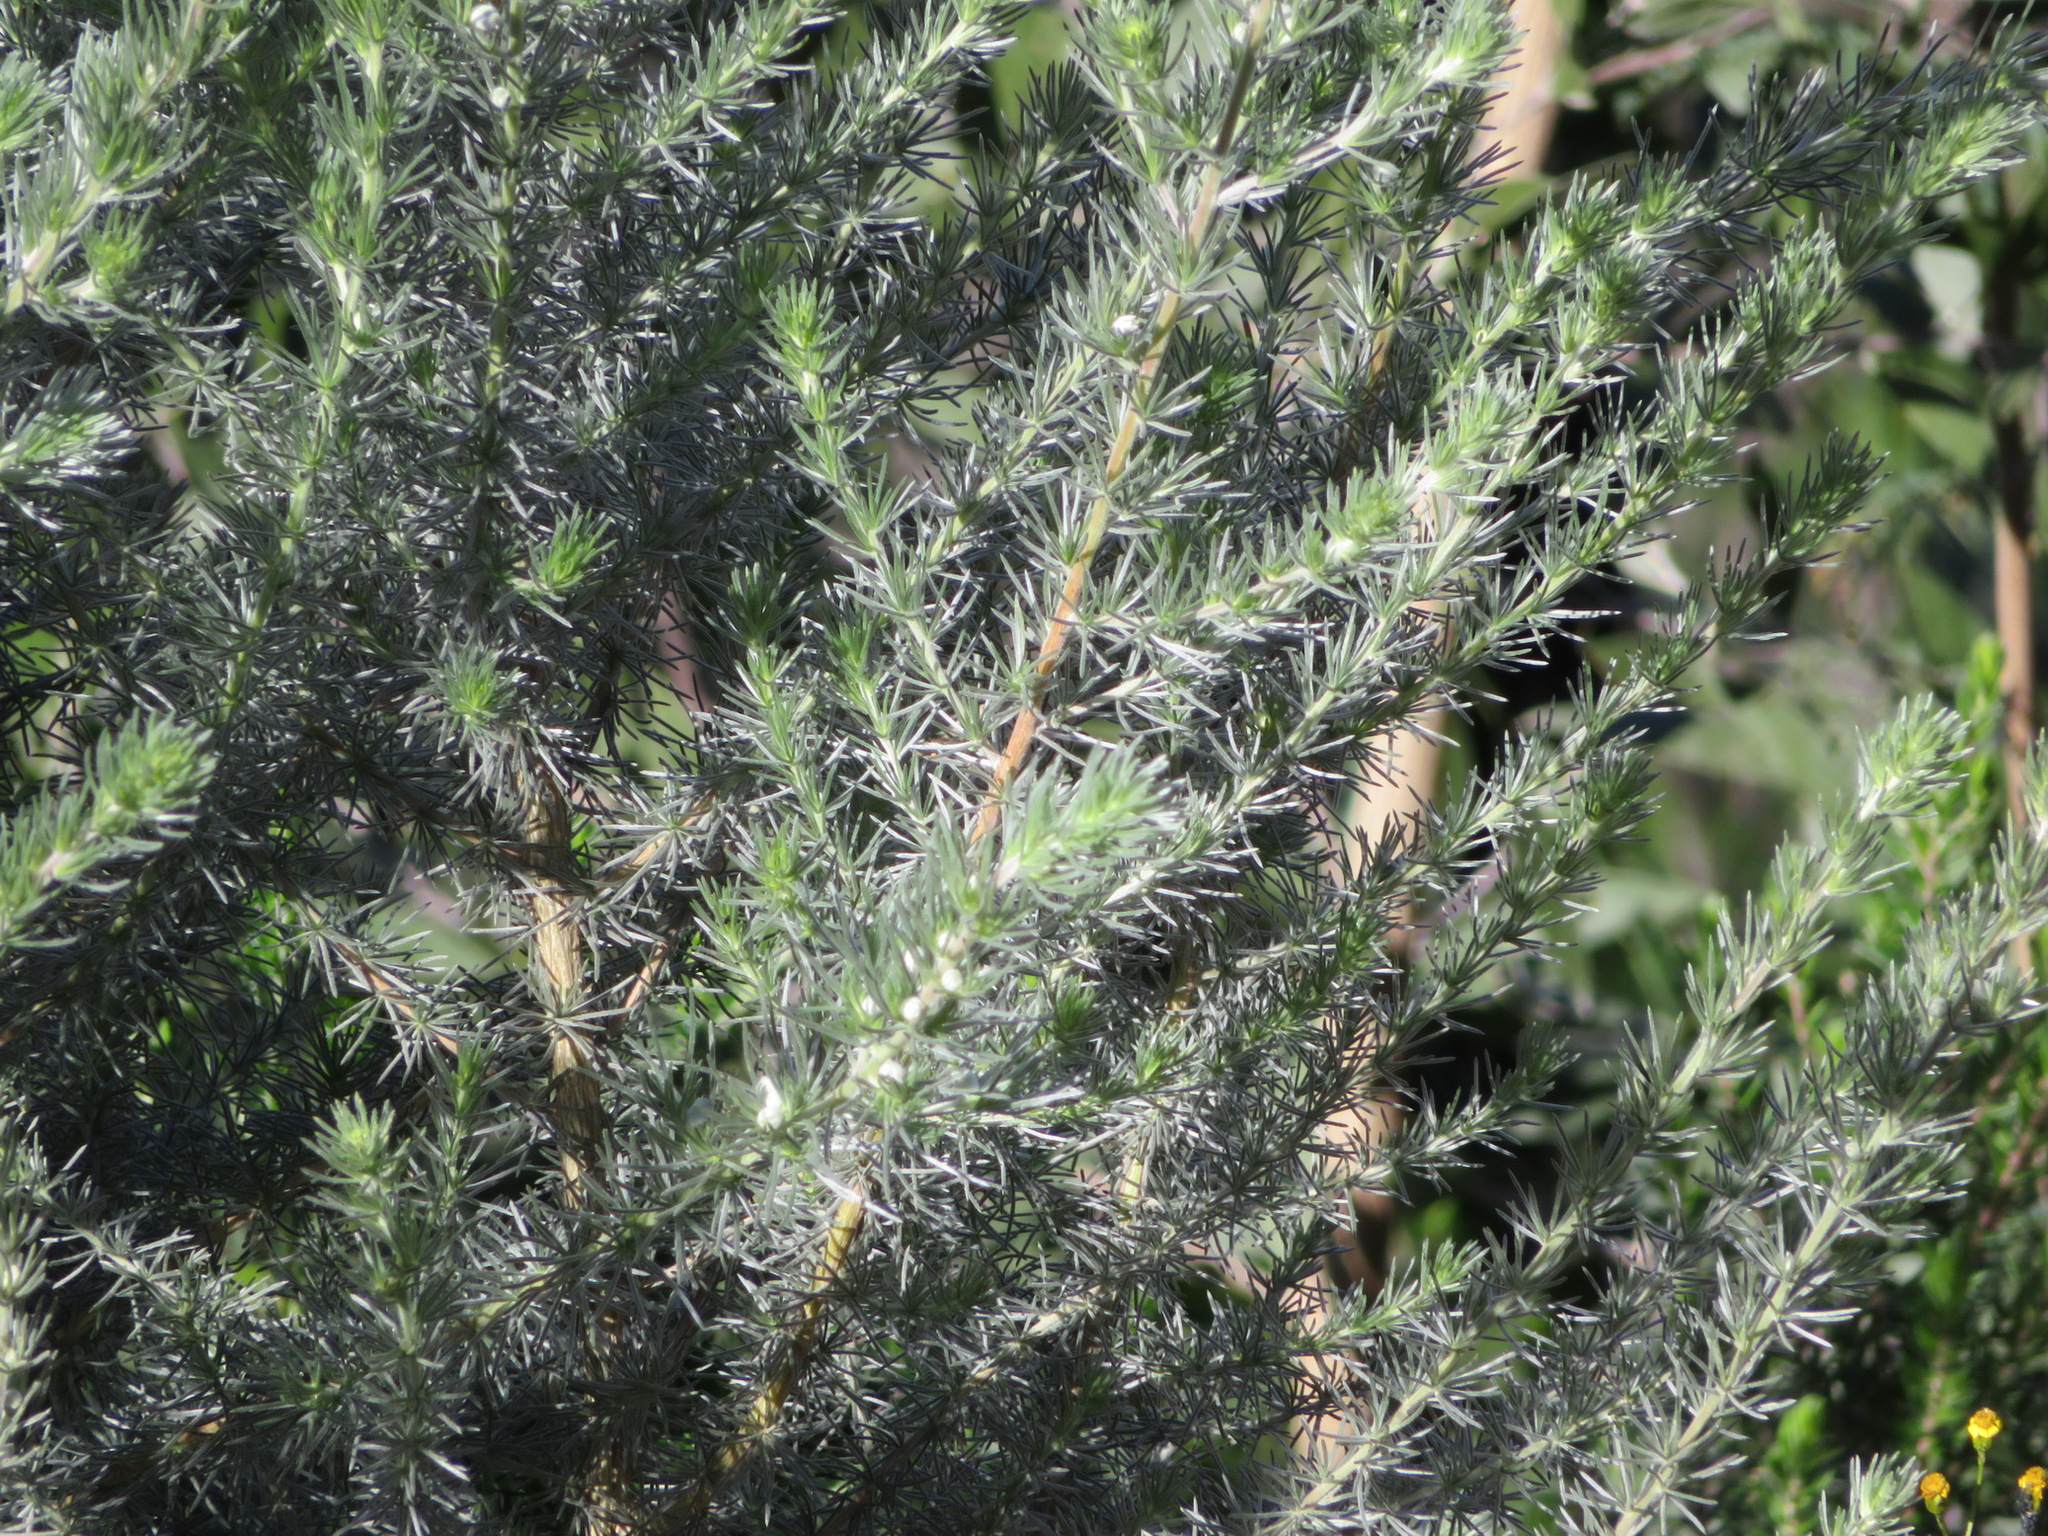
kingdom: Plantae
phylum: Tracheophyta
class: Magnoliopsida
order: Fabales
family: Fabaceae
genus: Aspalathus
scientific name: Aspalathus florifera
